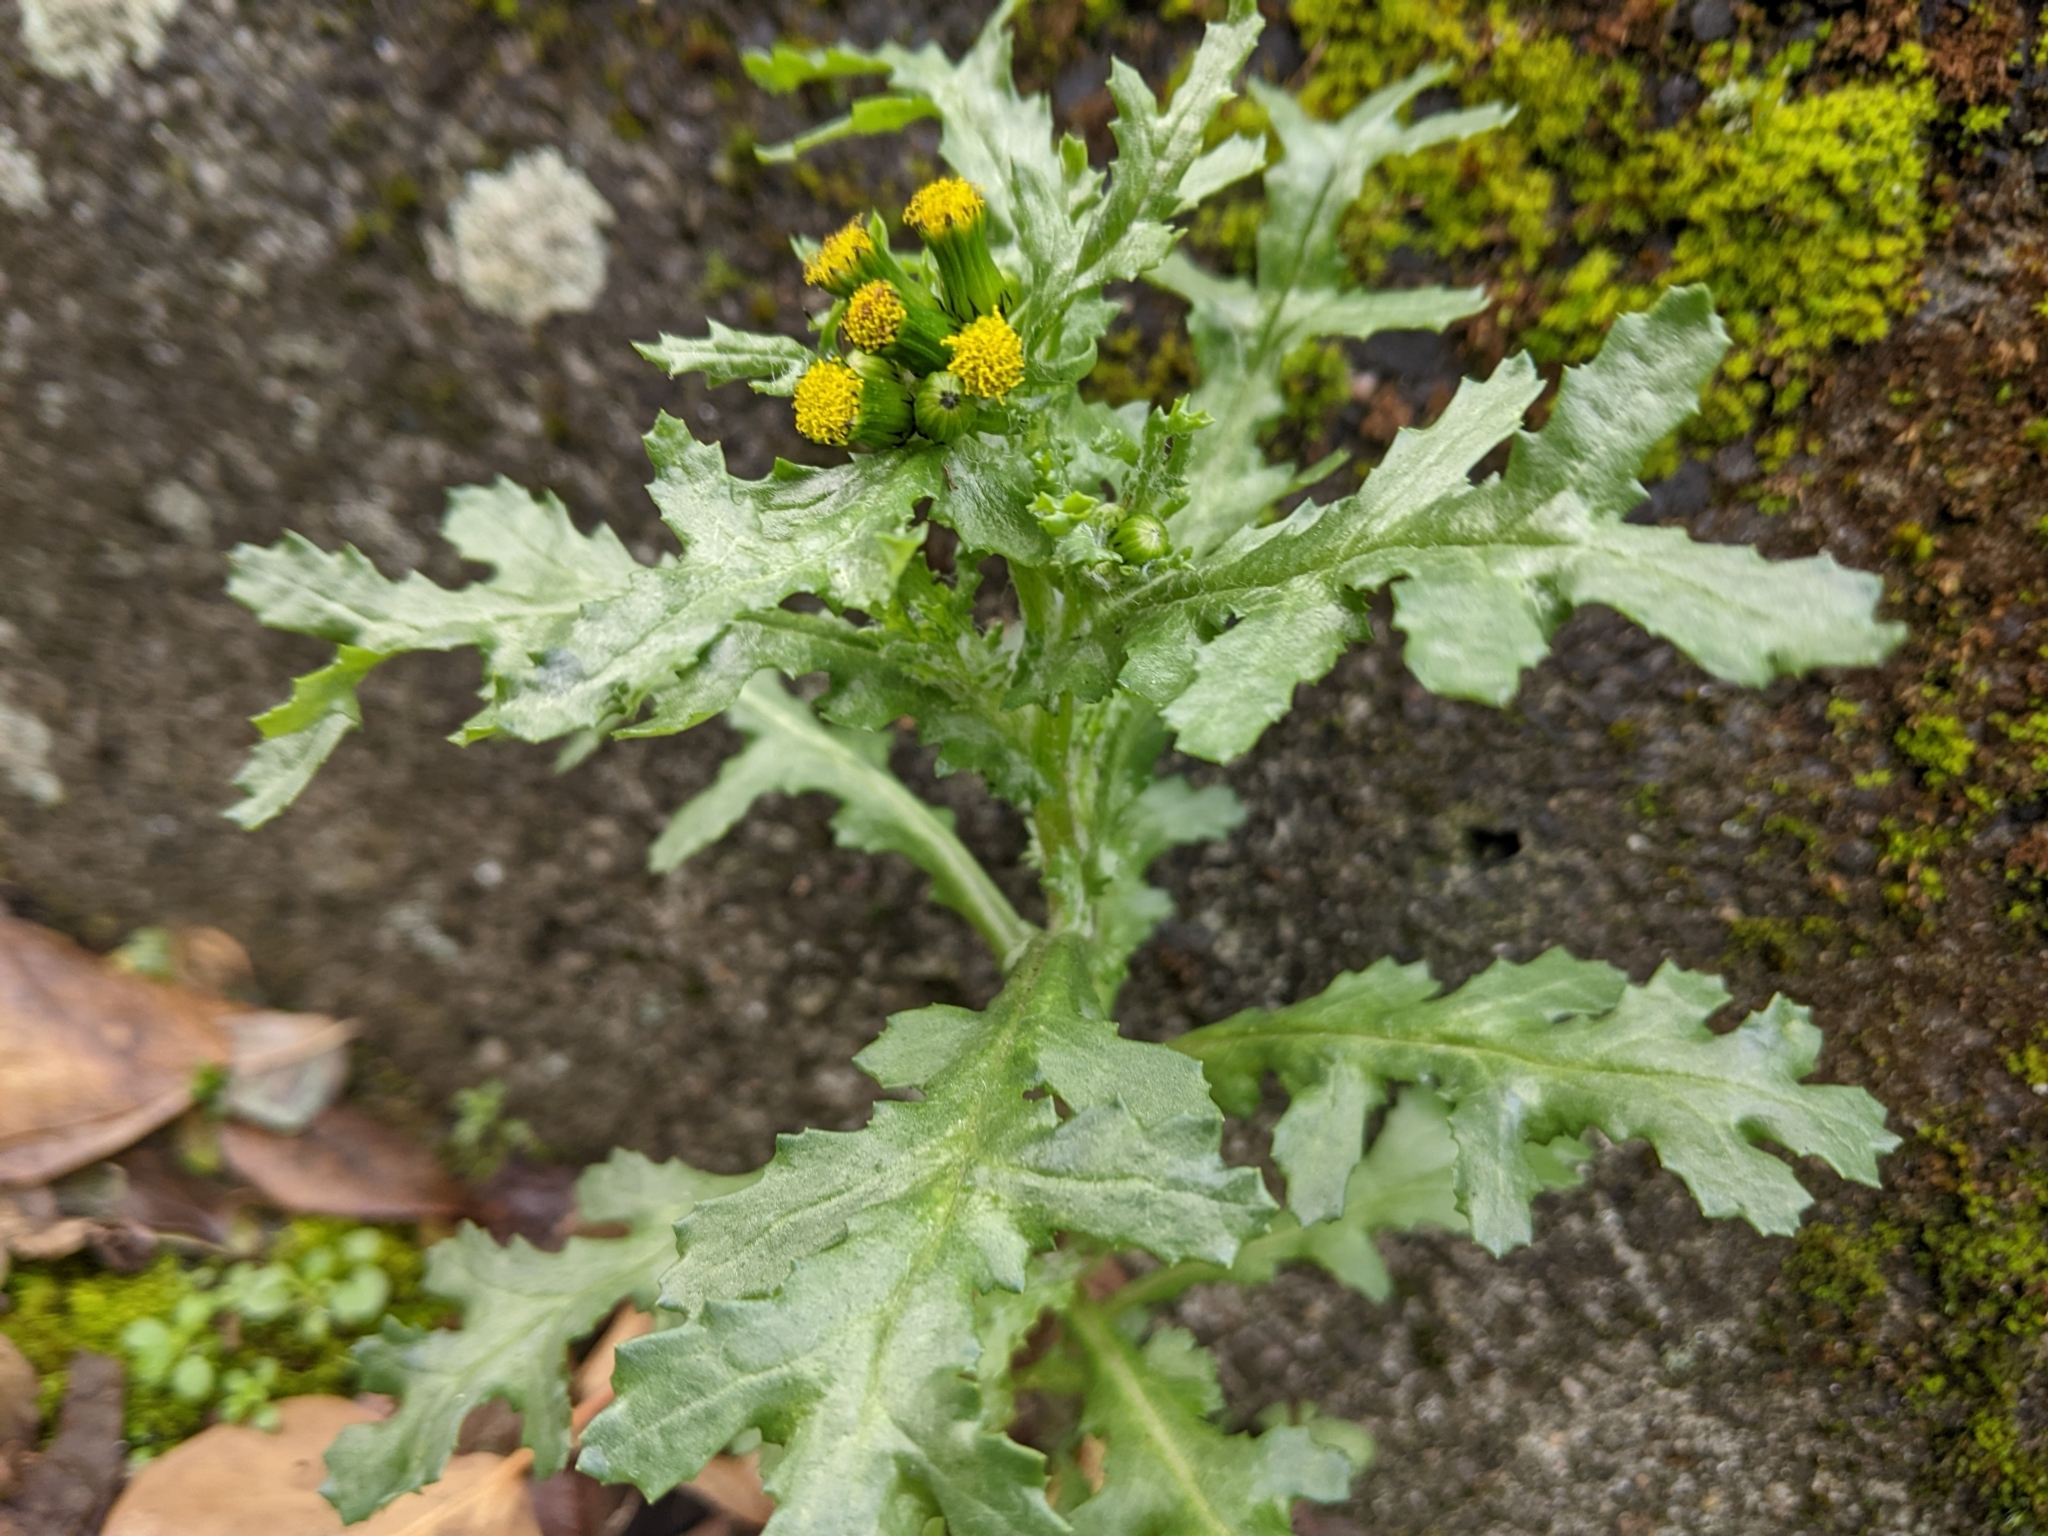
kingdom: Plantae
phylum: Tracheophyta
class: Magnoliopsida
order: Asterales
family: Asteraceae
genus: Senecio
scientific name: Senecio vulgaris
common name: Old-man-in-the-spring
